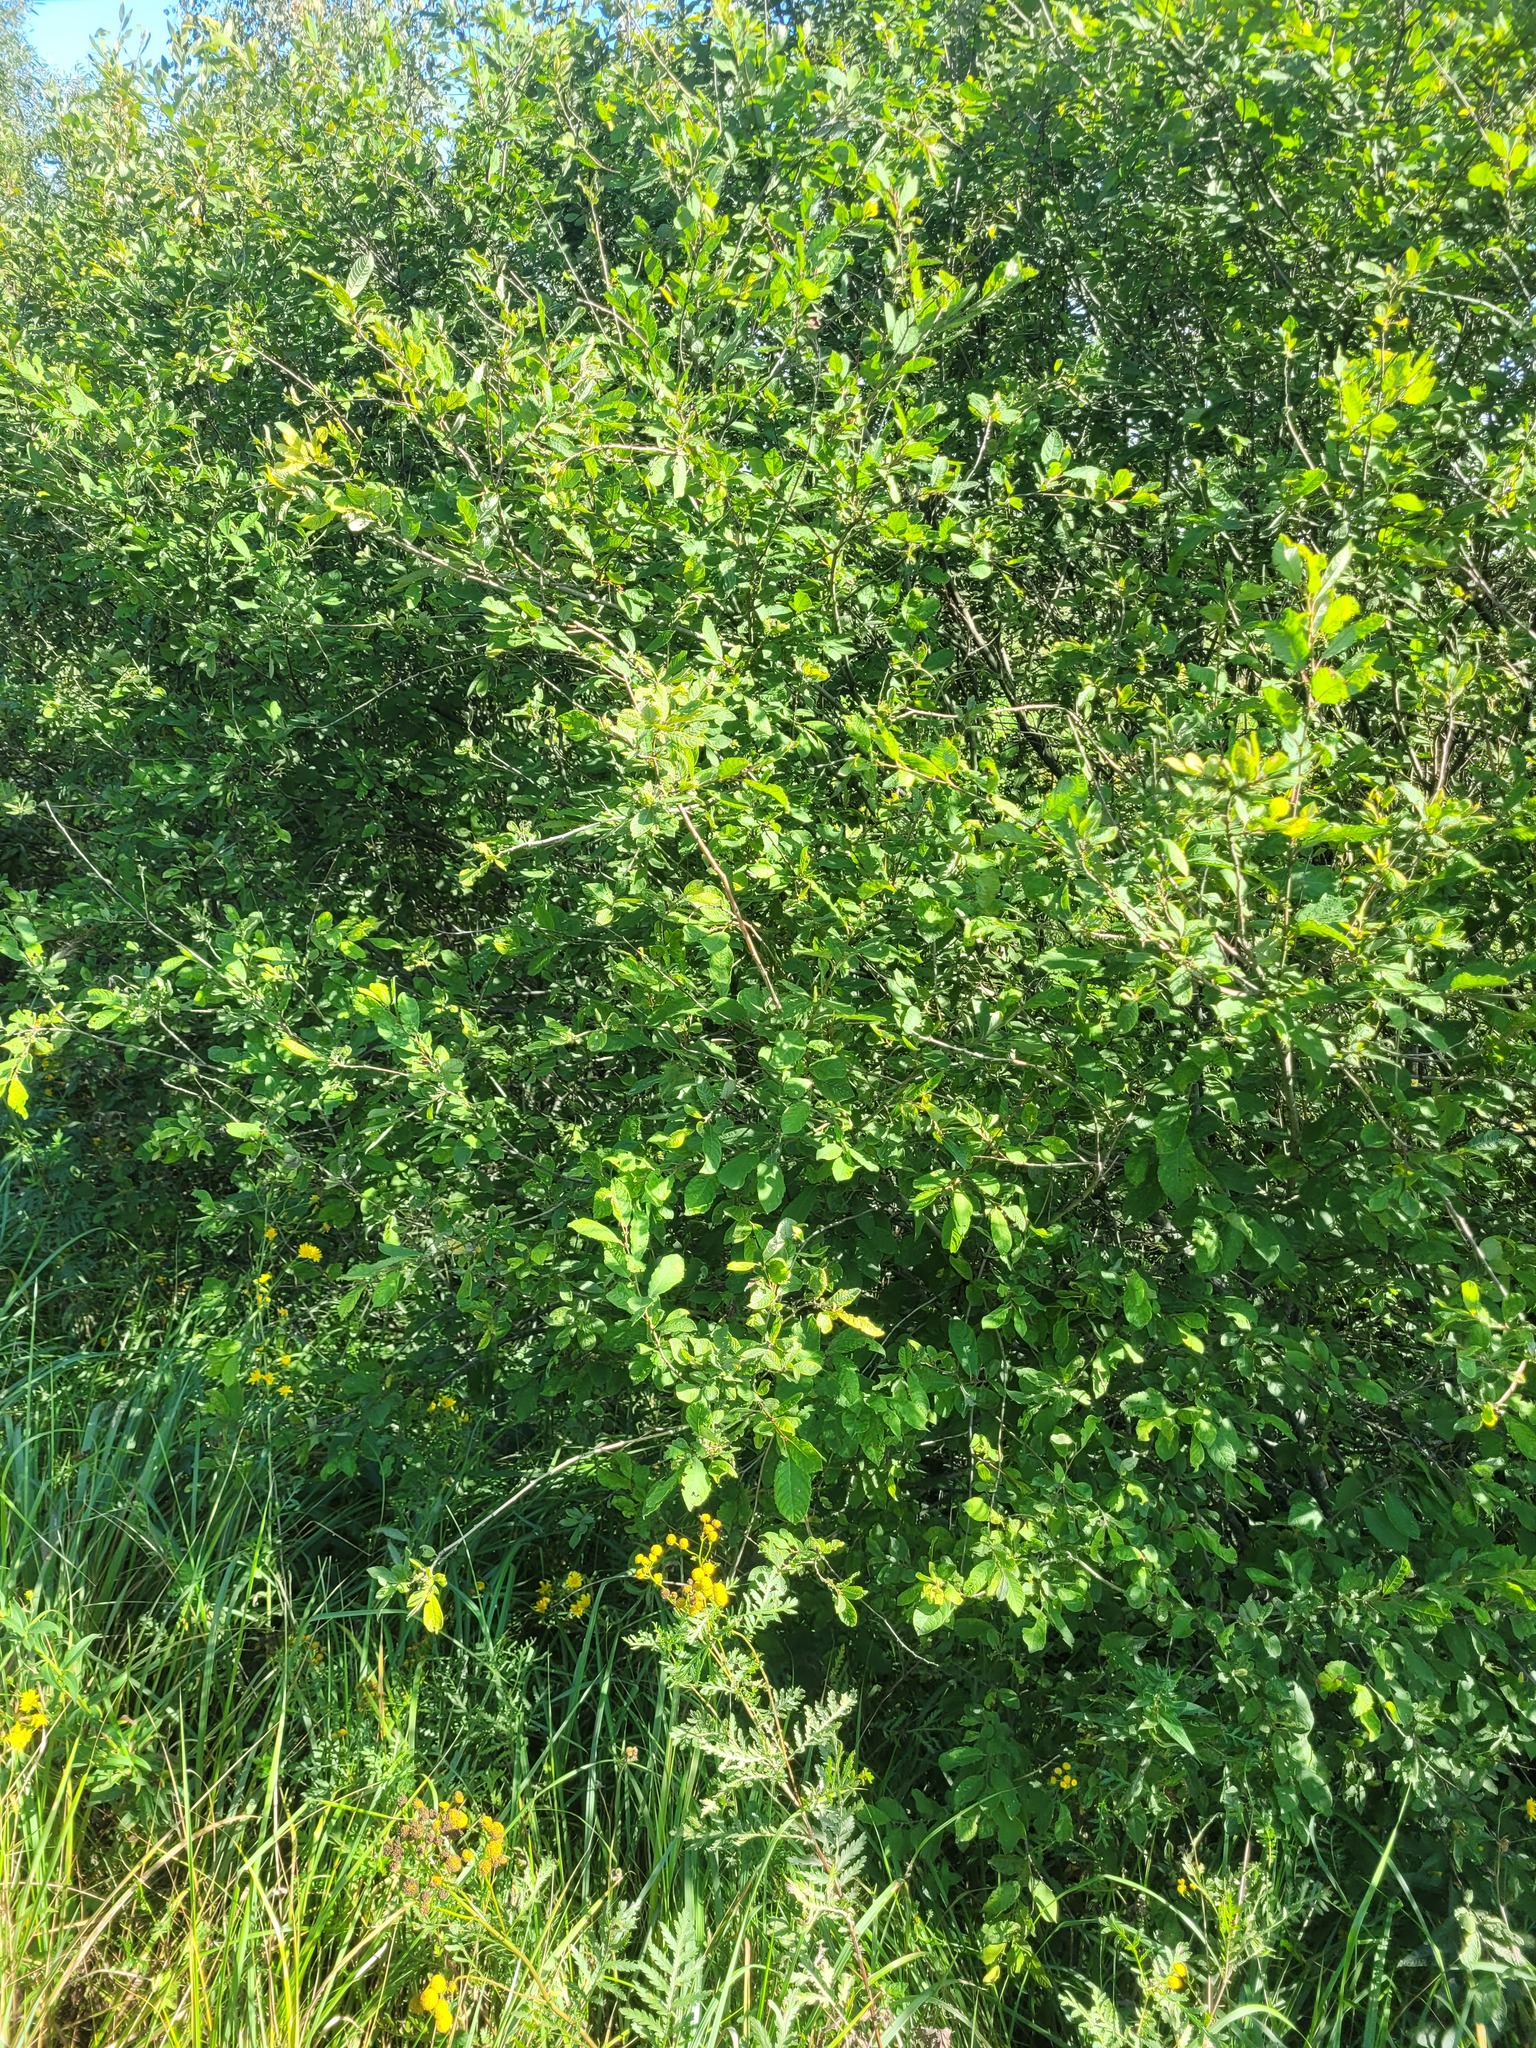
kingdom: Plantae
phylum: Tracheophyta
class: Magnoliopsida
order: Malpighiales
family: Salicaceae
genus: Salix
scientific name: Salix aurita
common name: Eared willow
